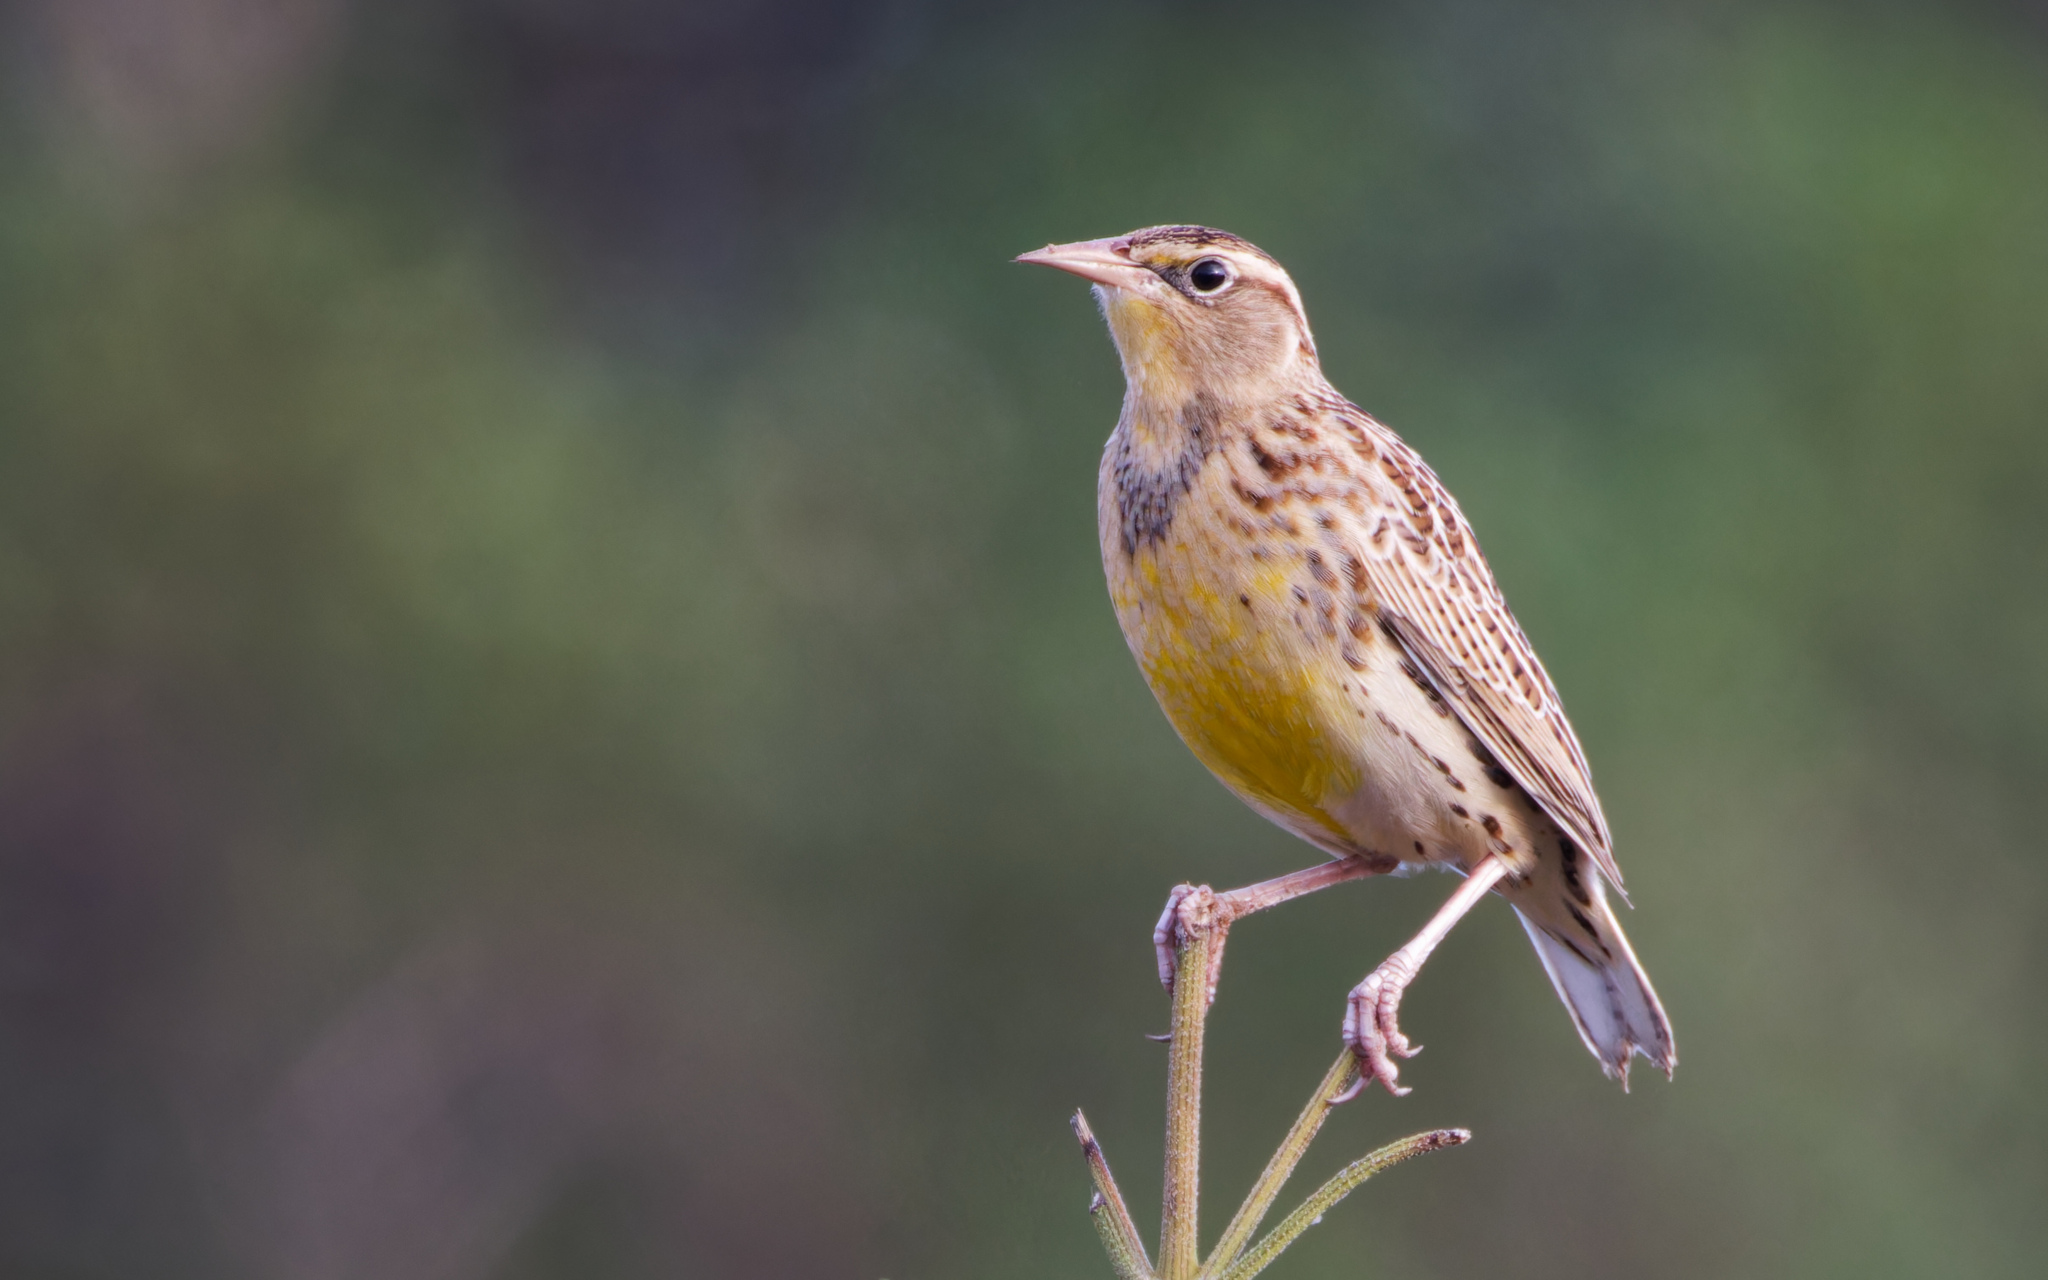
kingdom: Animalia
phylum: Chordata
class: Aves
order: Passeriformes
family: Icteridae
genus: Sturnella
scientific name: Sturnella neglecta
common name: Western meadowlark
